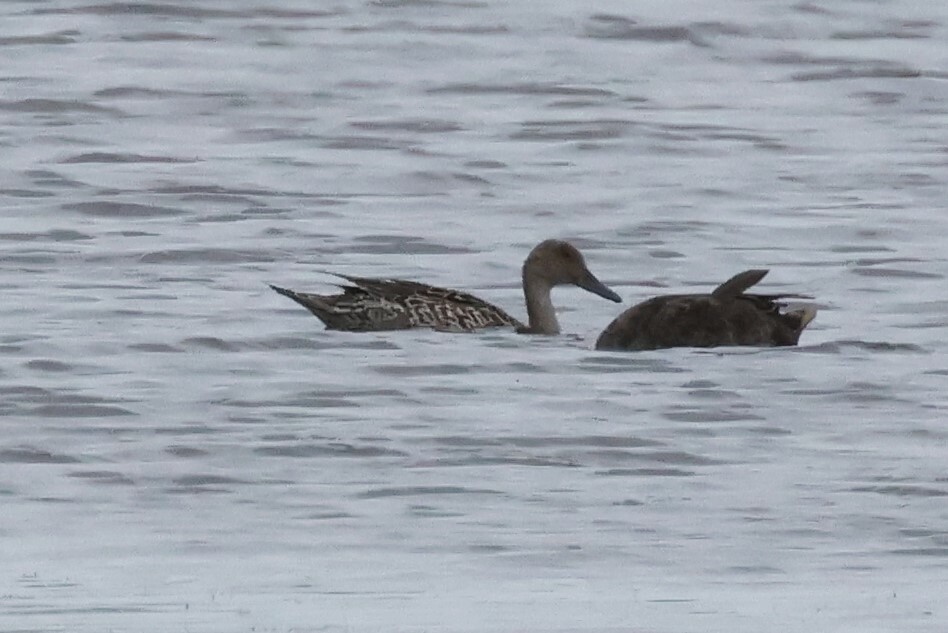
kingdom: Animalia
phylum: Chordata
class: Aves
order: Anseriformes
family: Anatidae
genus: Anas
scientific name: Anas acuta
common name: Northern pintail
